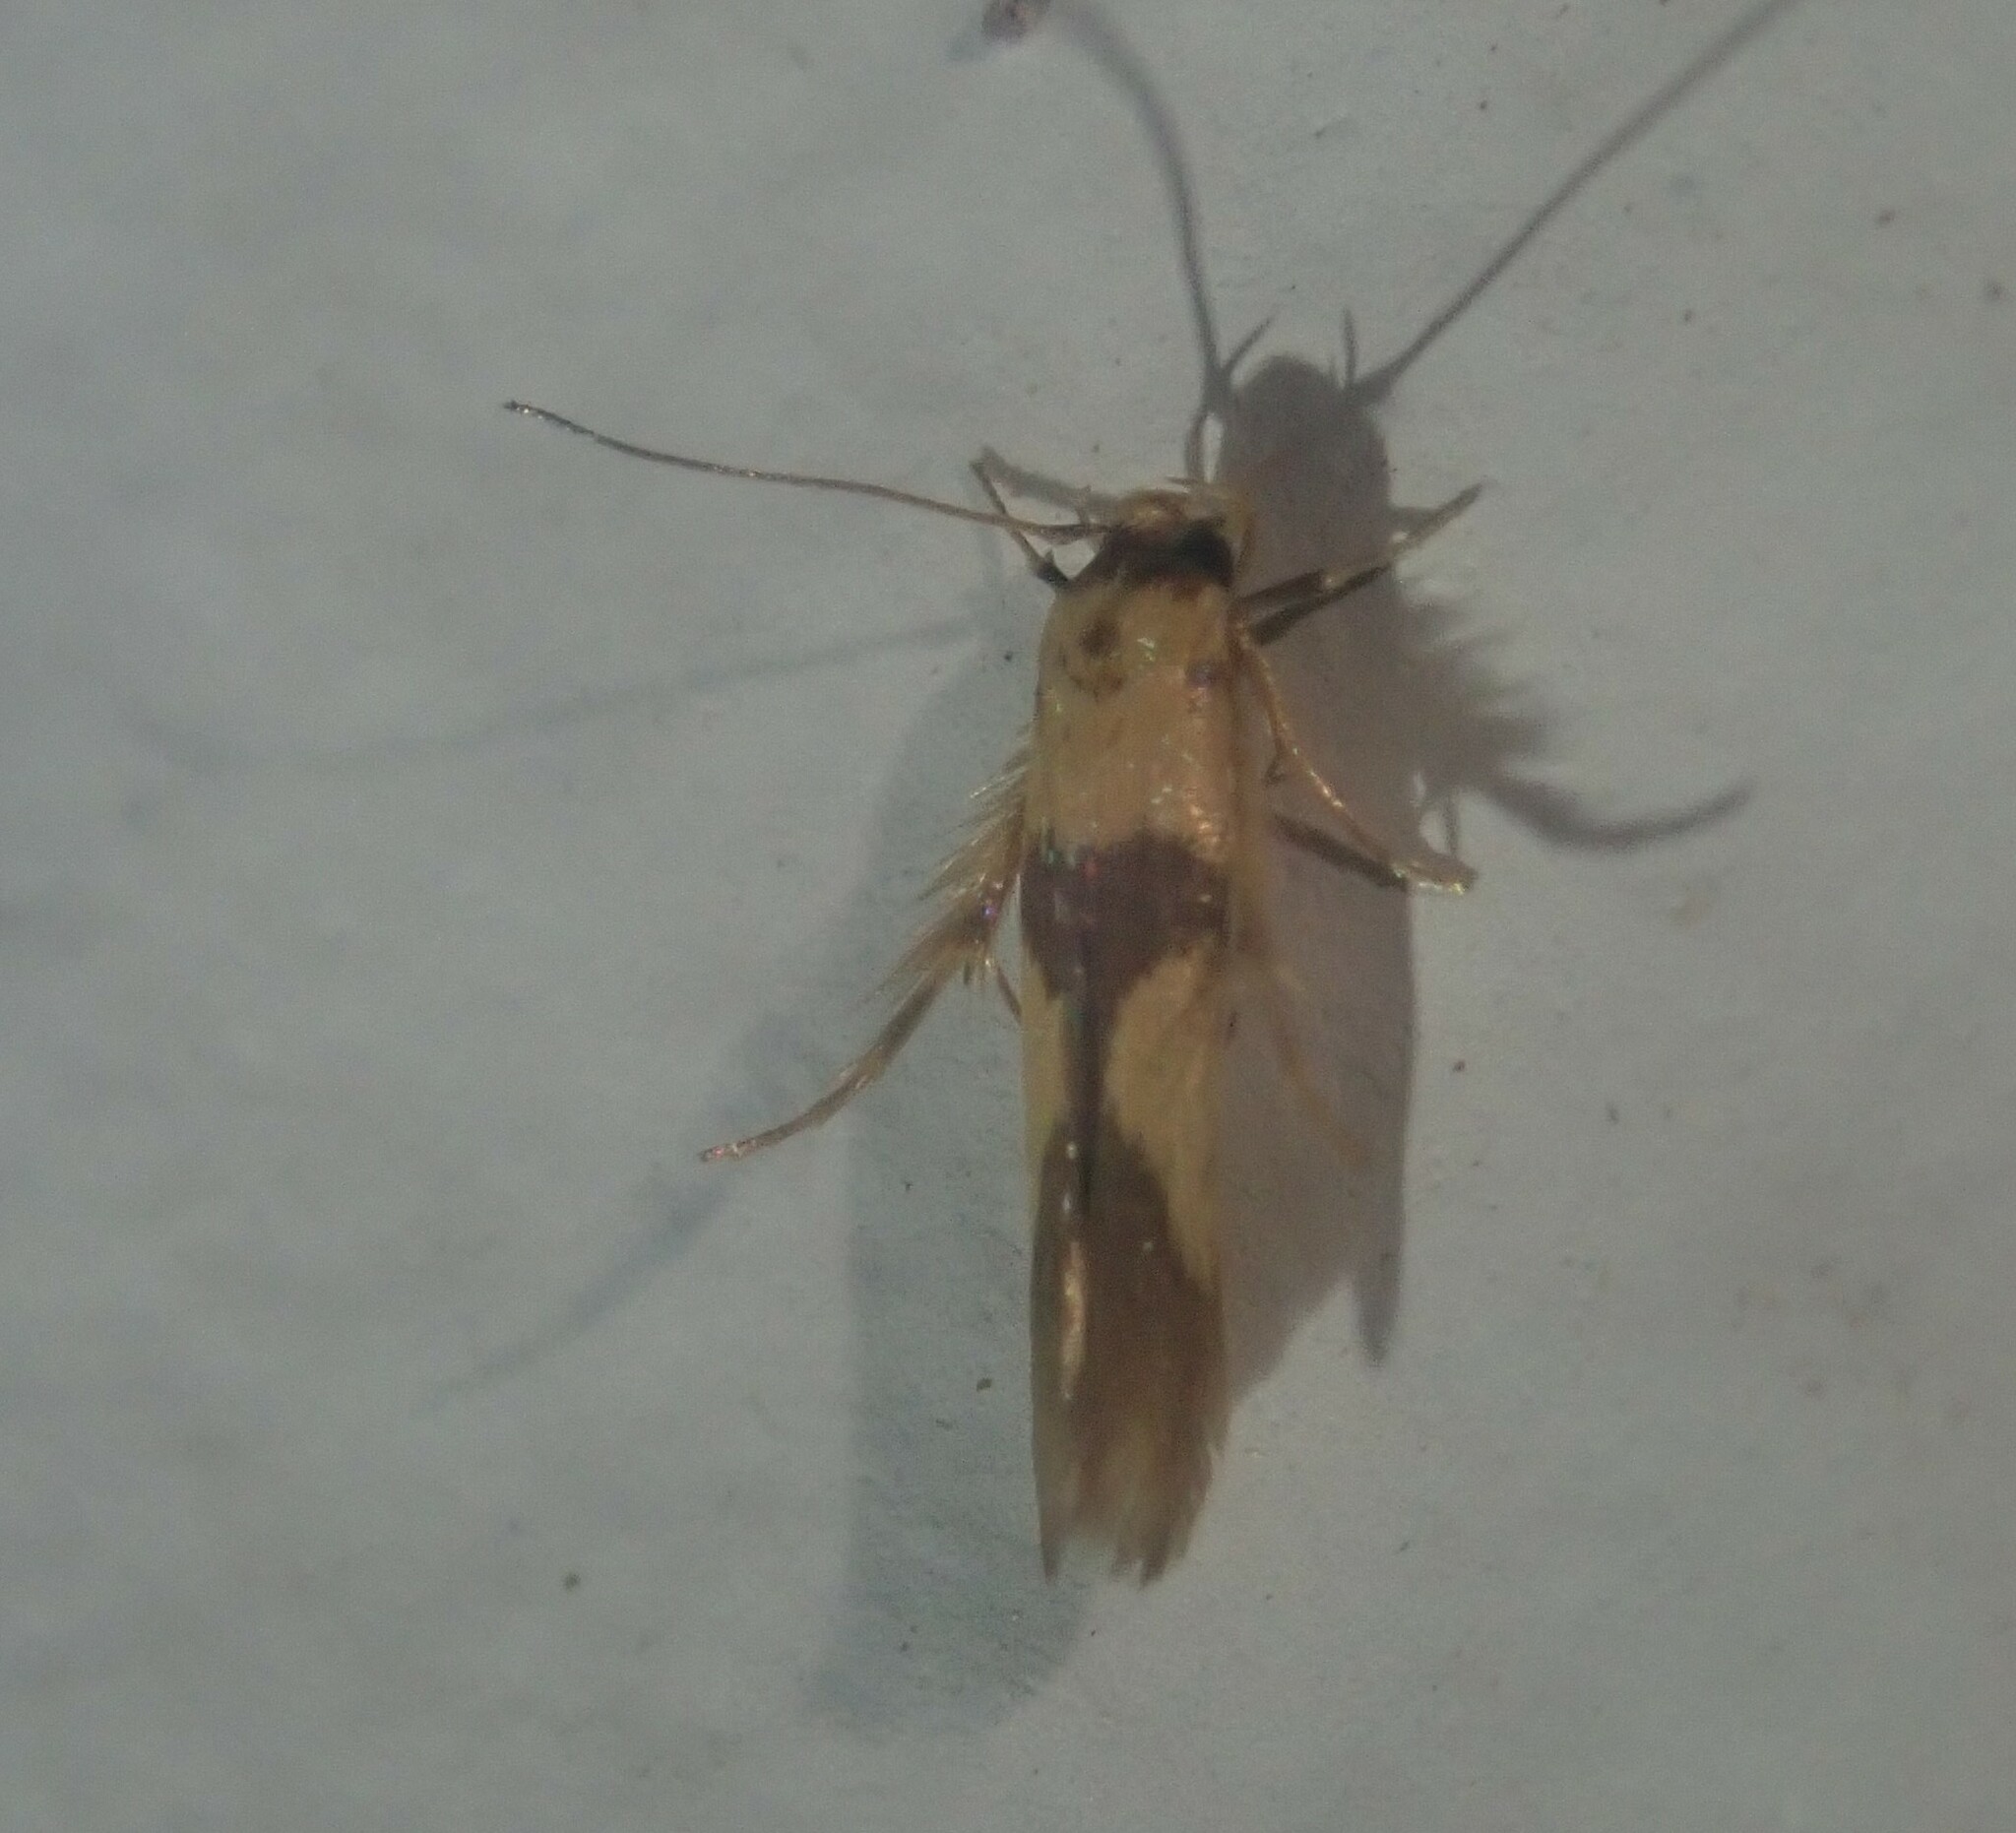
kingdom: Animalia
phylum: Arthropoda
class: Insecta
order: Lepidoptera
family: Stathmopodidae
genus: Stathmopoda
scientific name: Stathmopoda crassella
